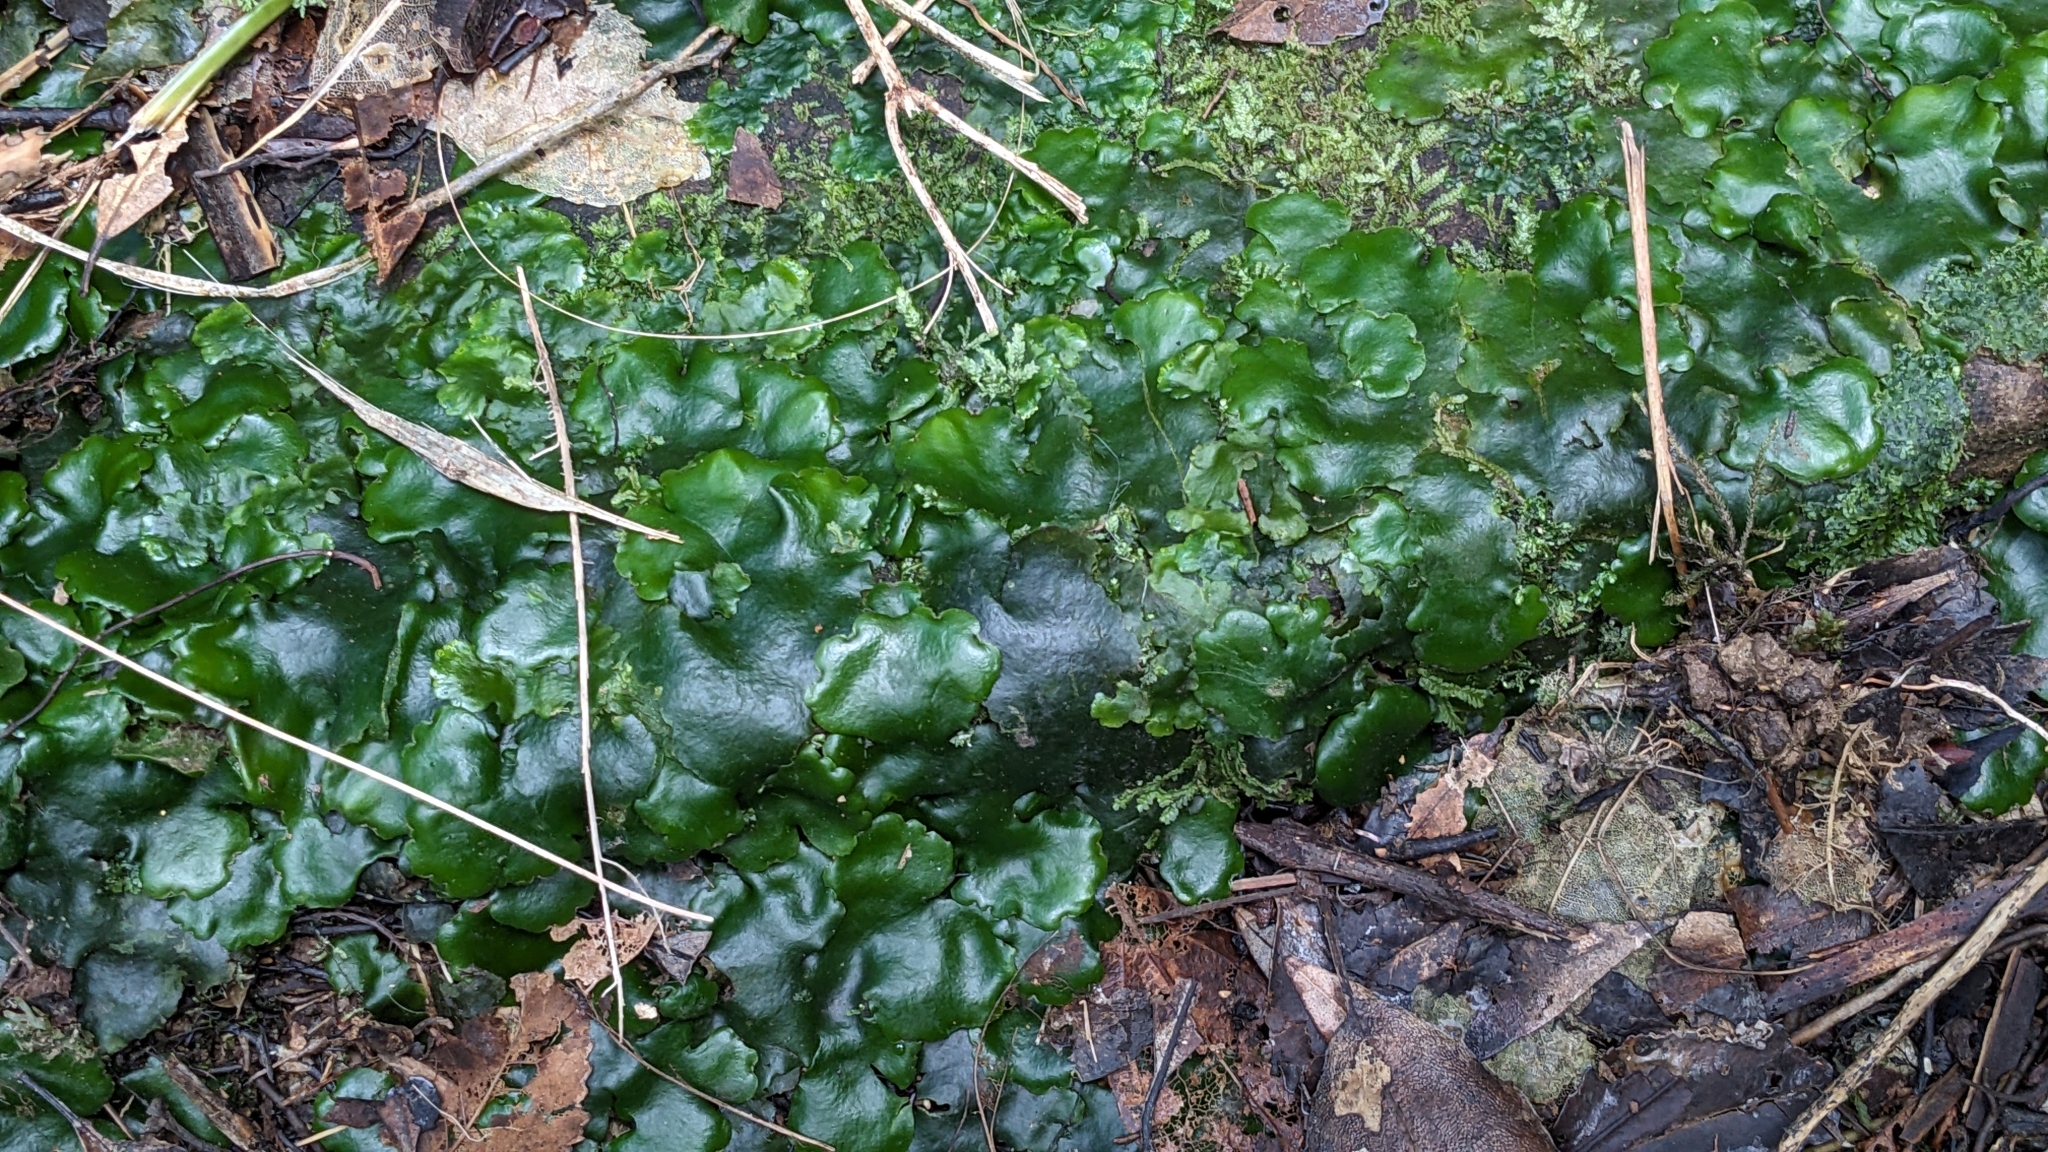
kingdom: Plantae
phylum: Marchantiophyta
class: Marchantiopsida
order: Marchantiales
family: Monocleaceae
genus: Monoclea
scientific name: Monoclea forsteri
